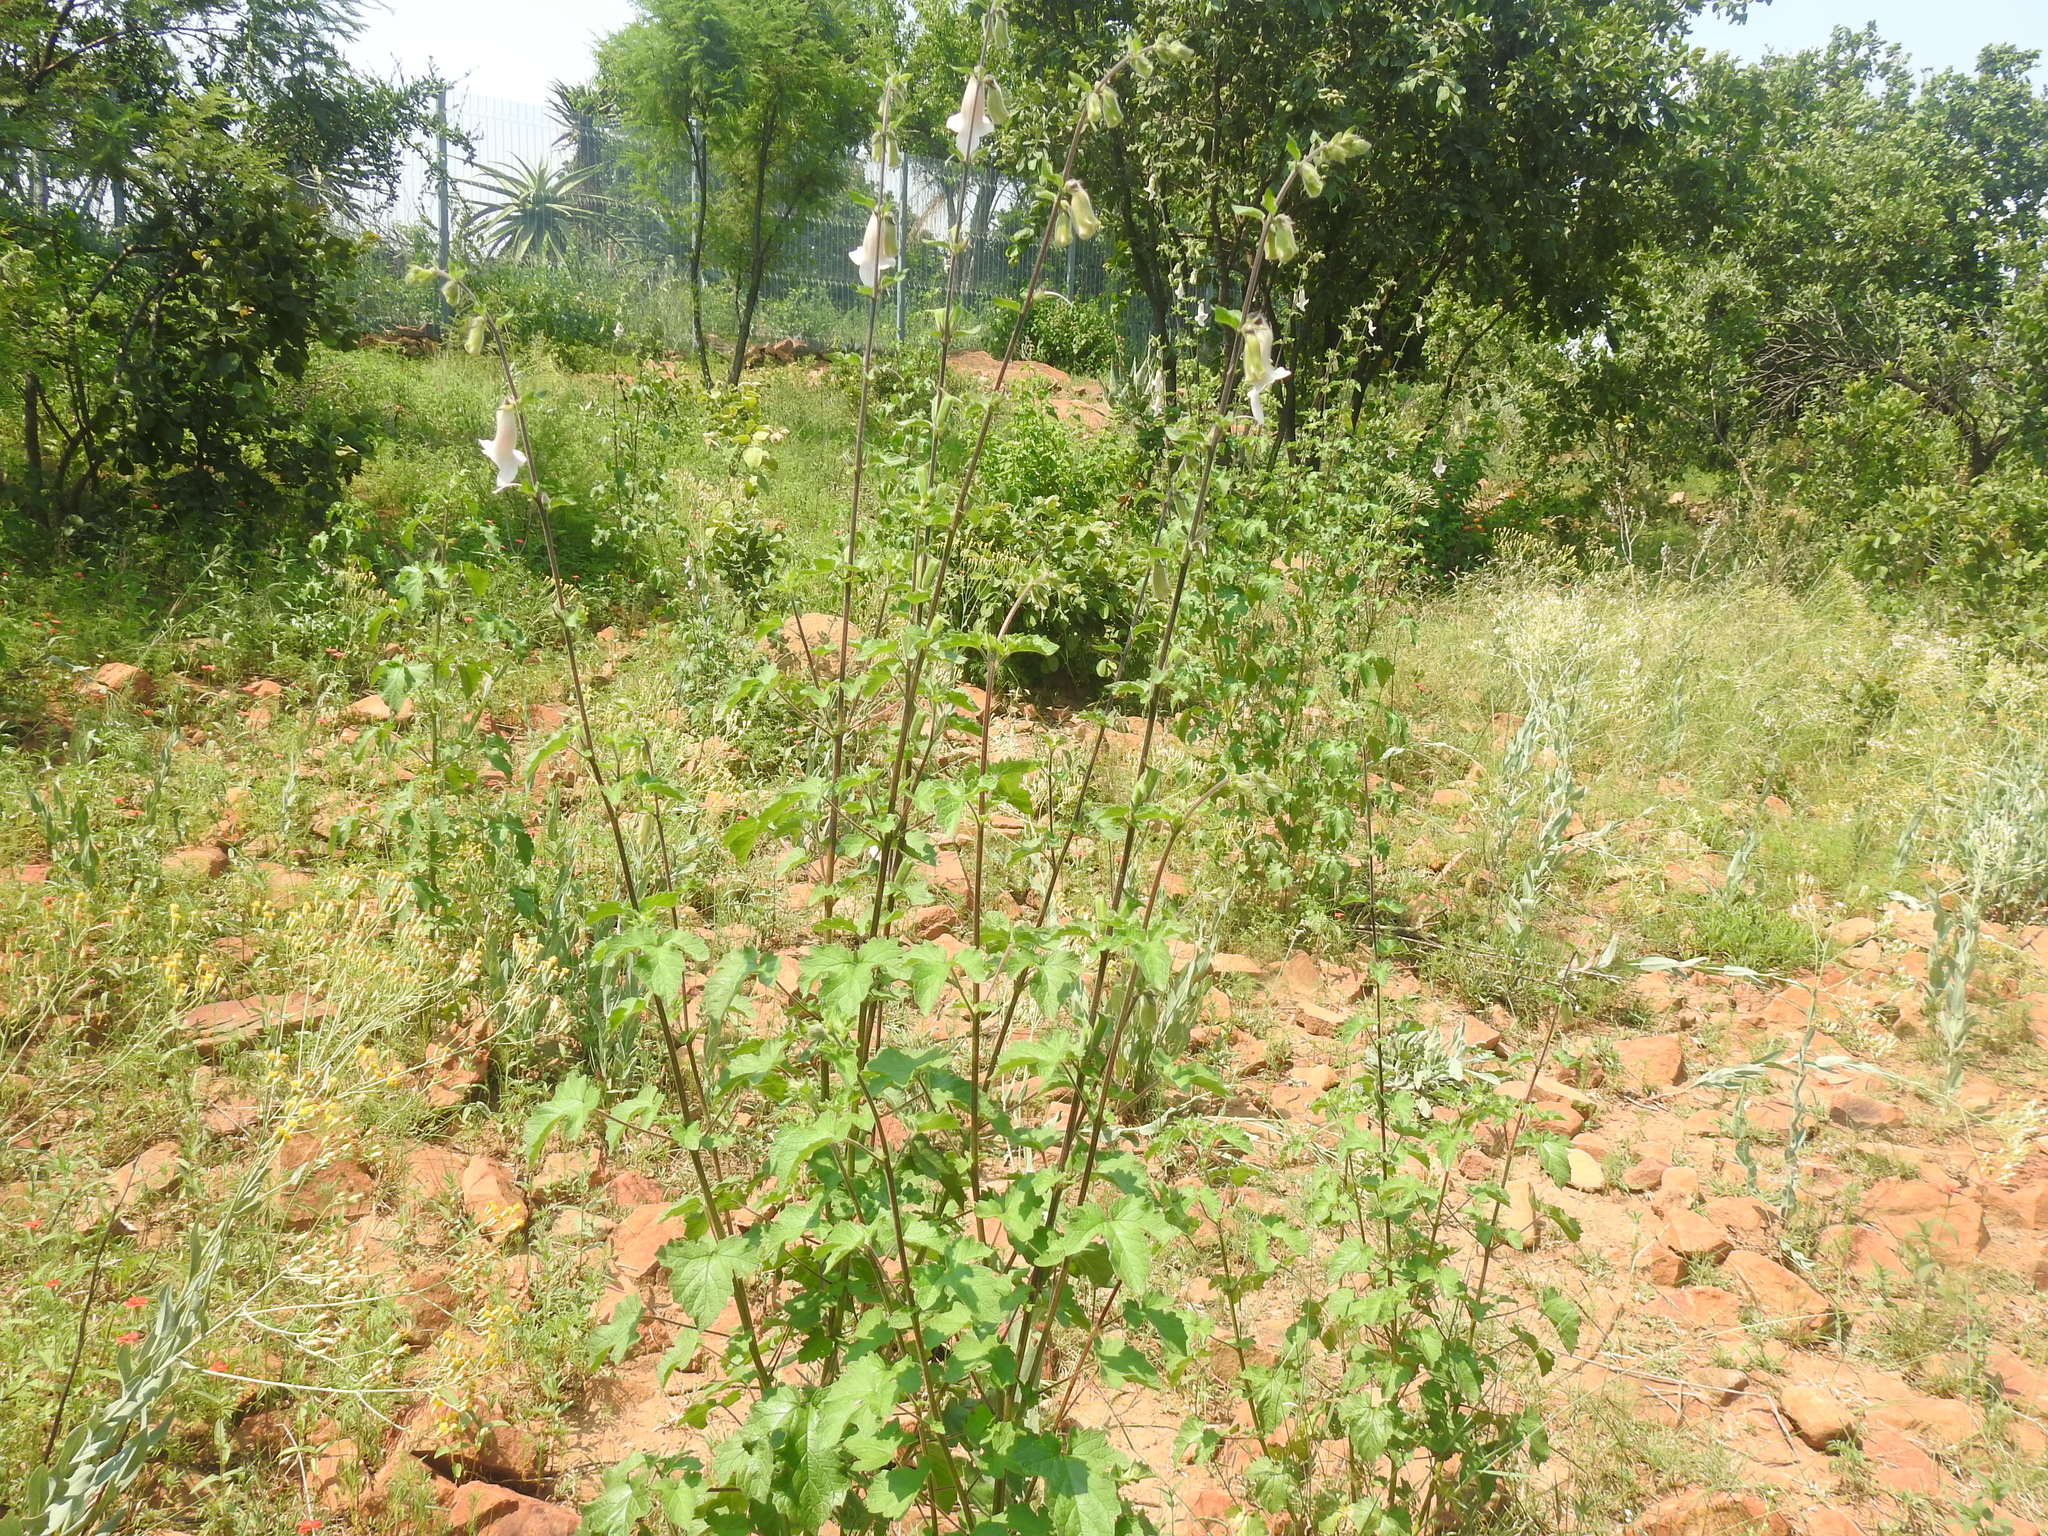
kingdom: Plantae
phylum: Tracheophyta
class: Magnoliopsida
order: Lamiales
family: Pedaliaceae
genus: Sesamum
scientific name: Sesamum trilobum
